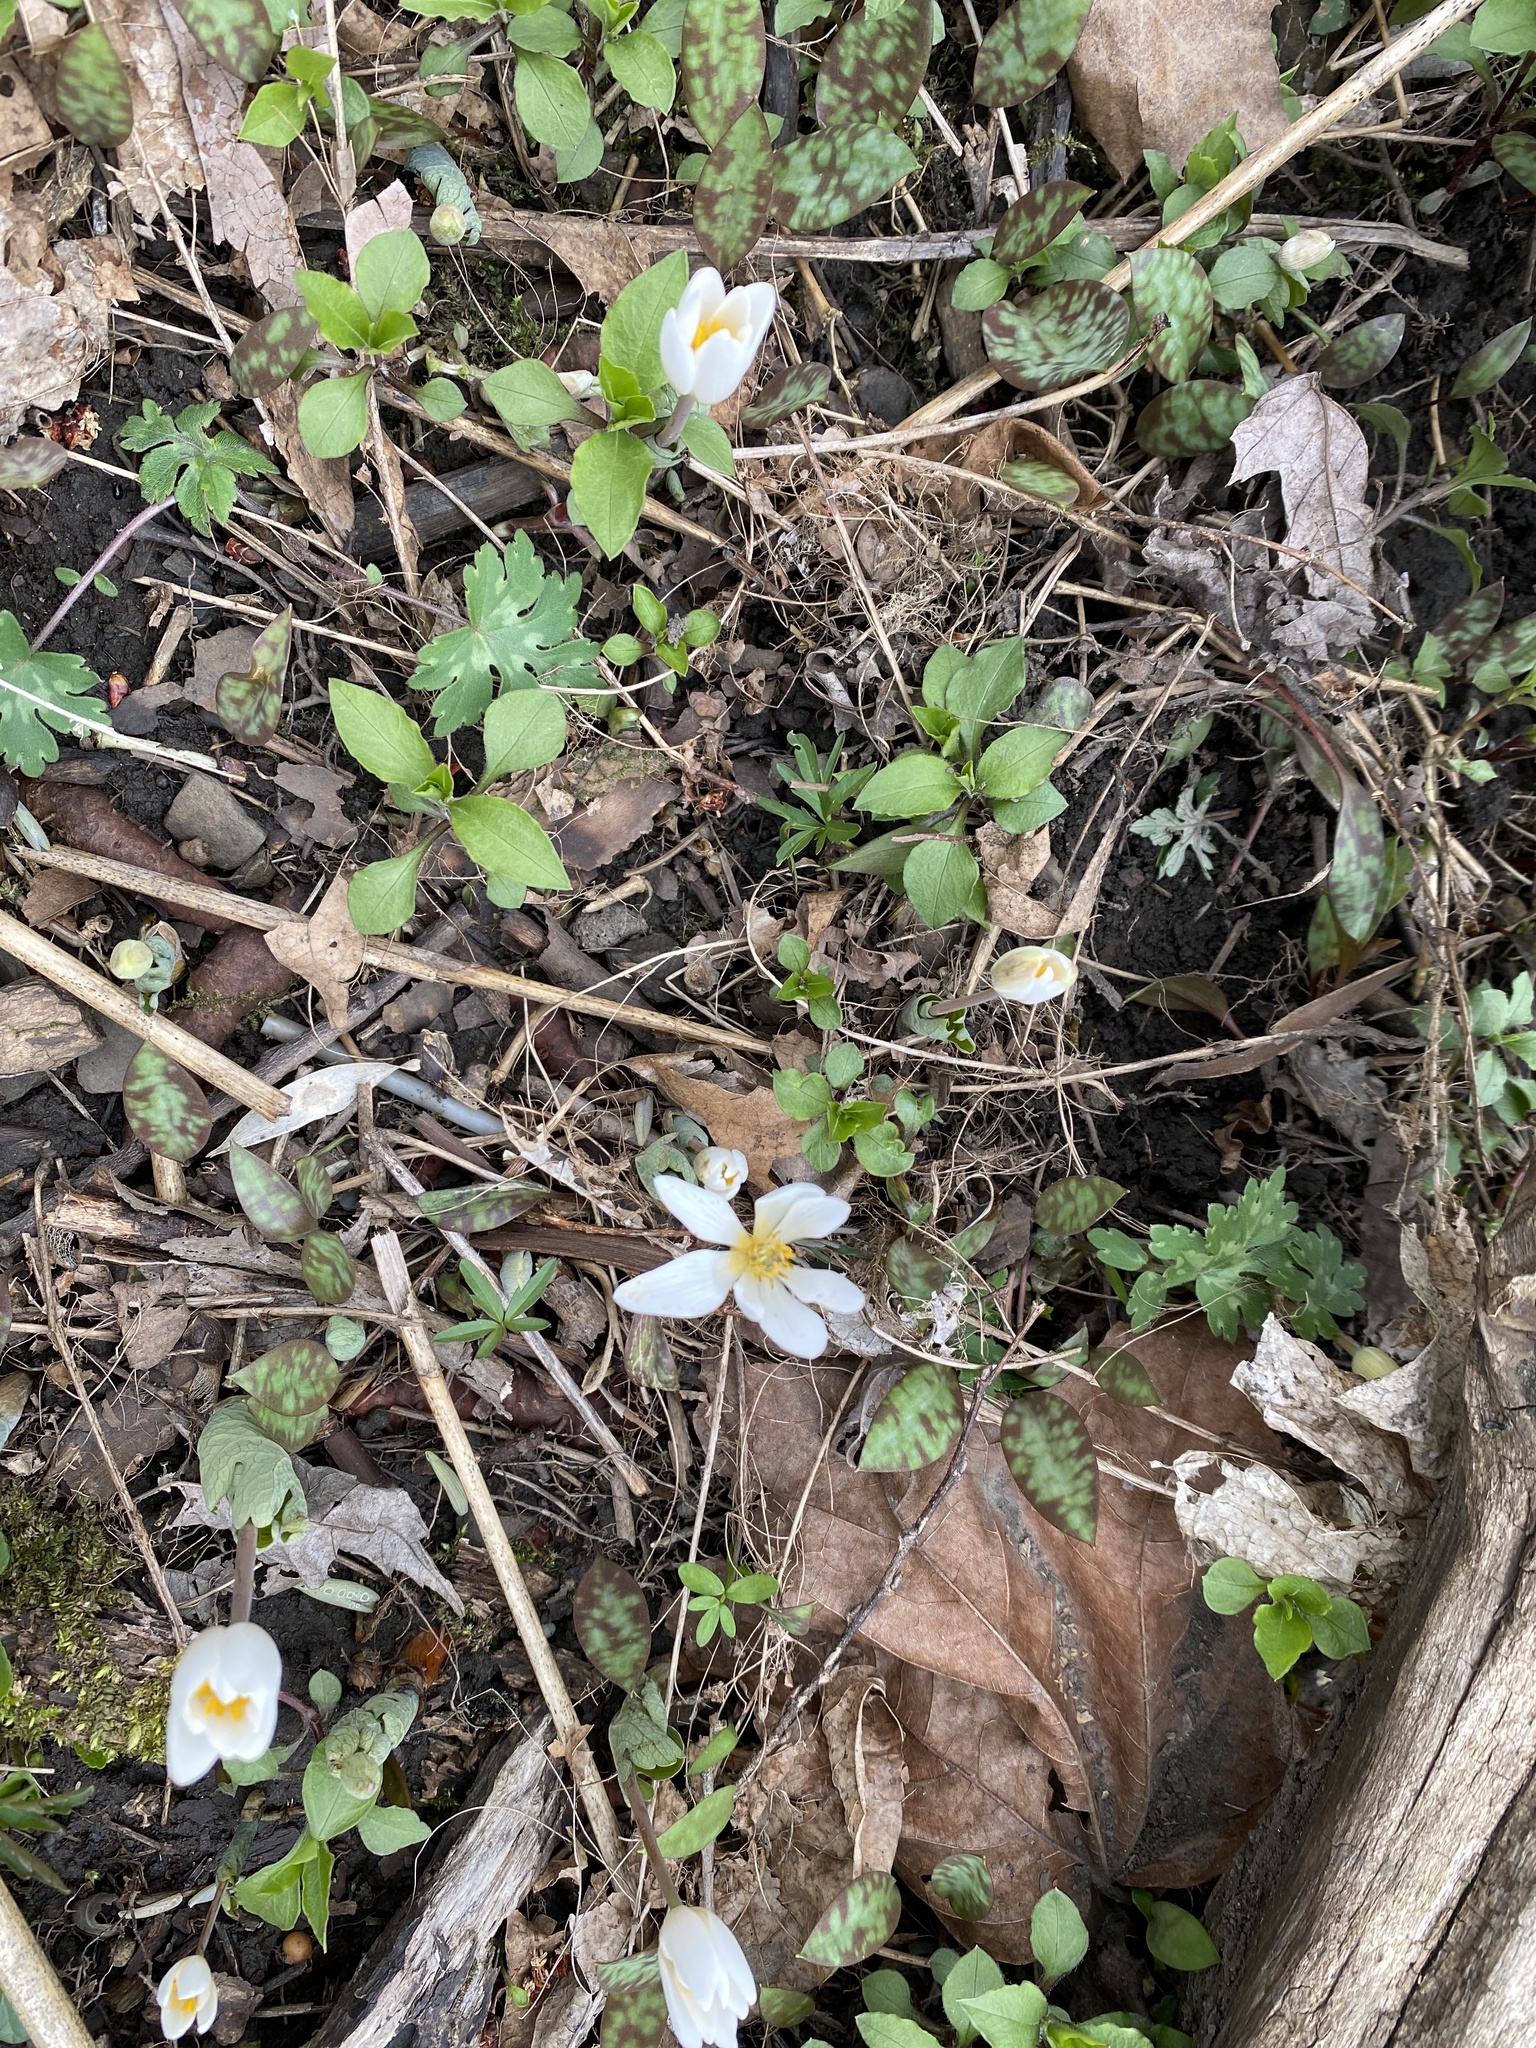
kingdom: Plantae
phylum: Tracheophyta
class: Magnoliopsida
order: Ranunculales
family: Papaveraceae
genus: Sanguinaria
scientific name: Sanguinaria canadensis
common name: Bloodroot
